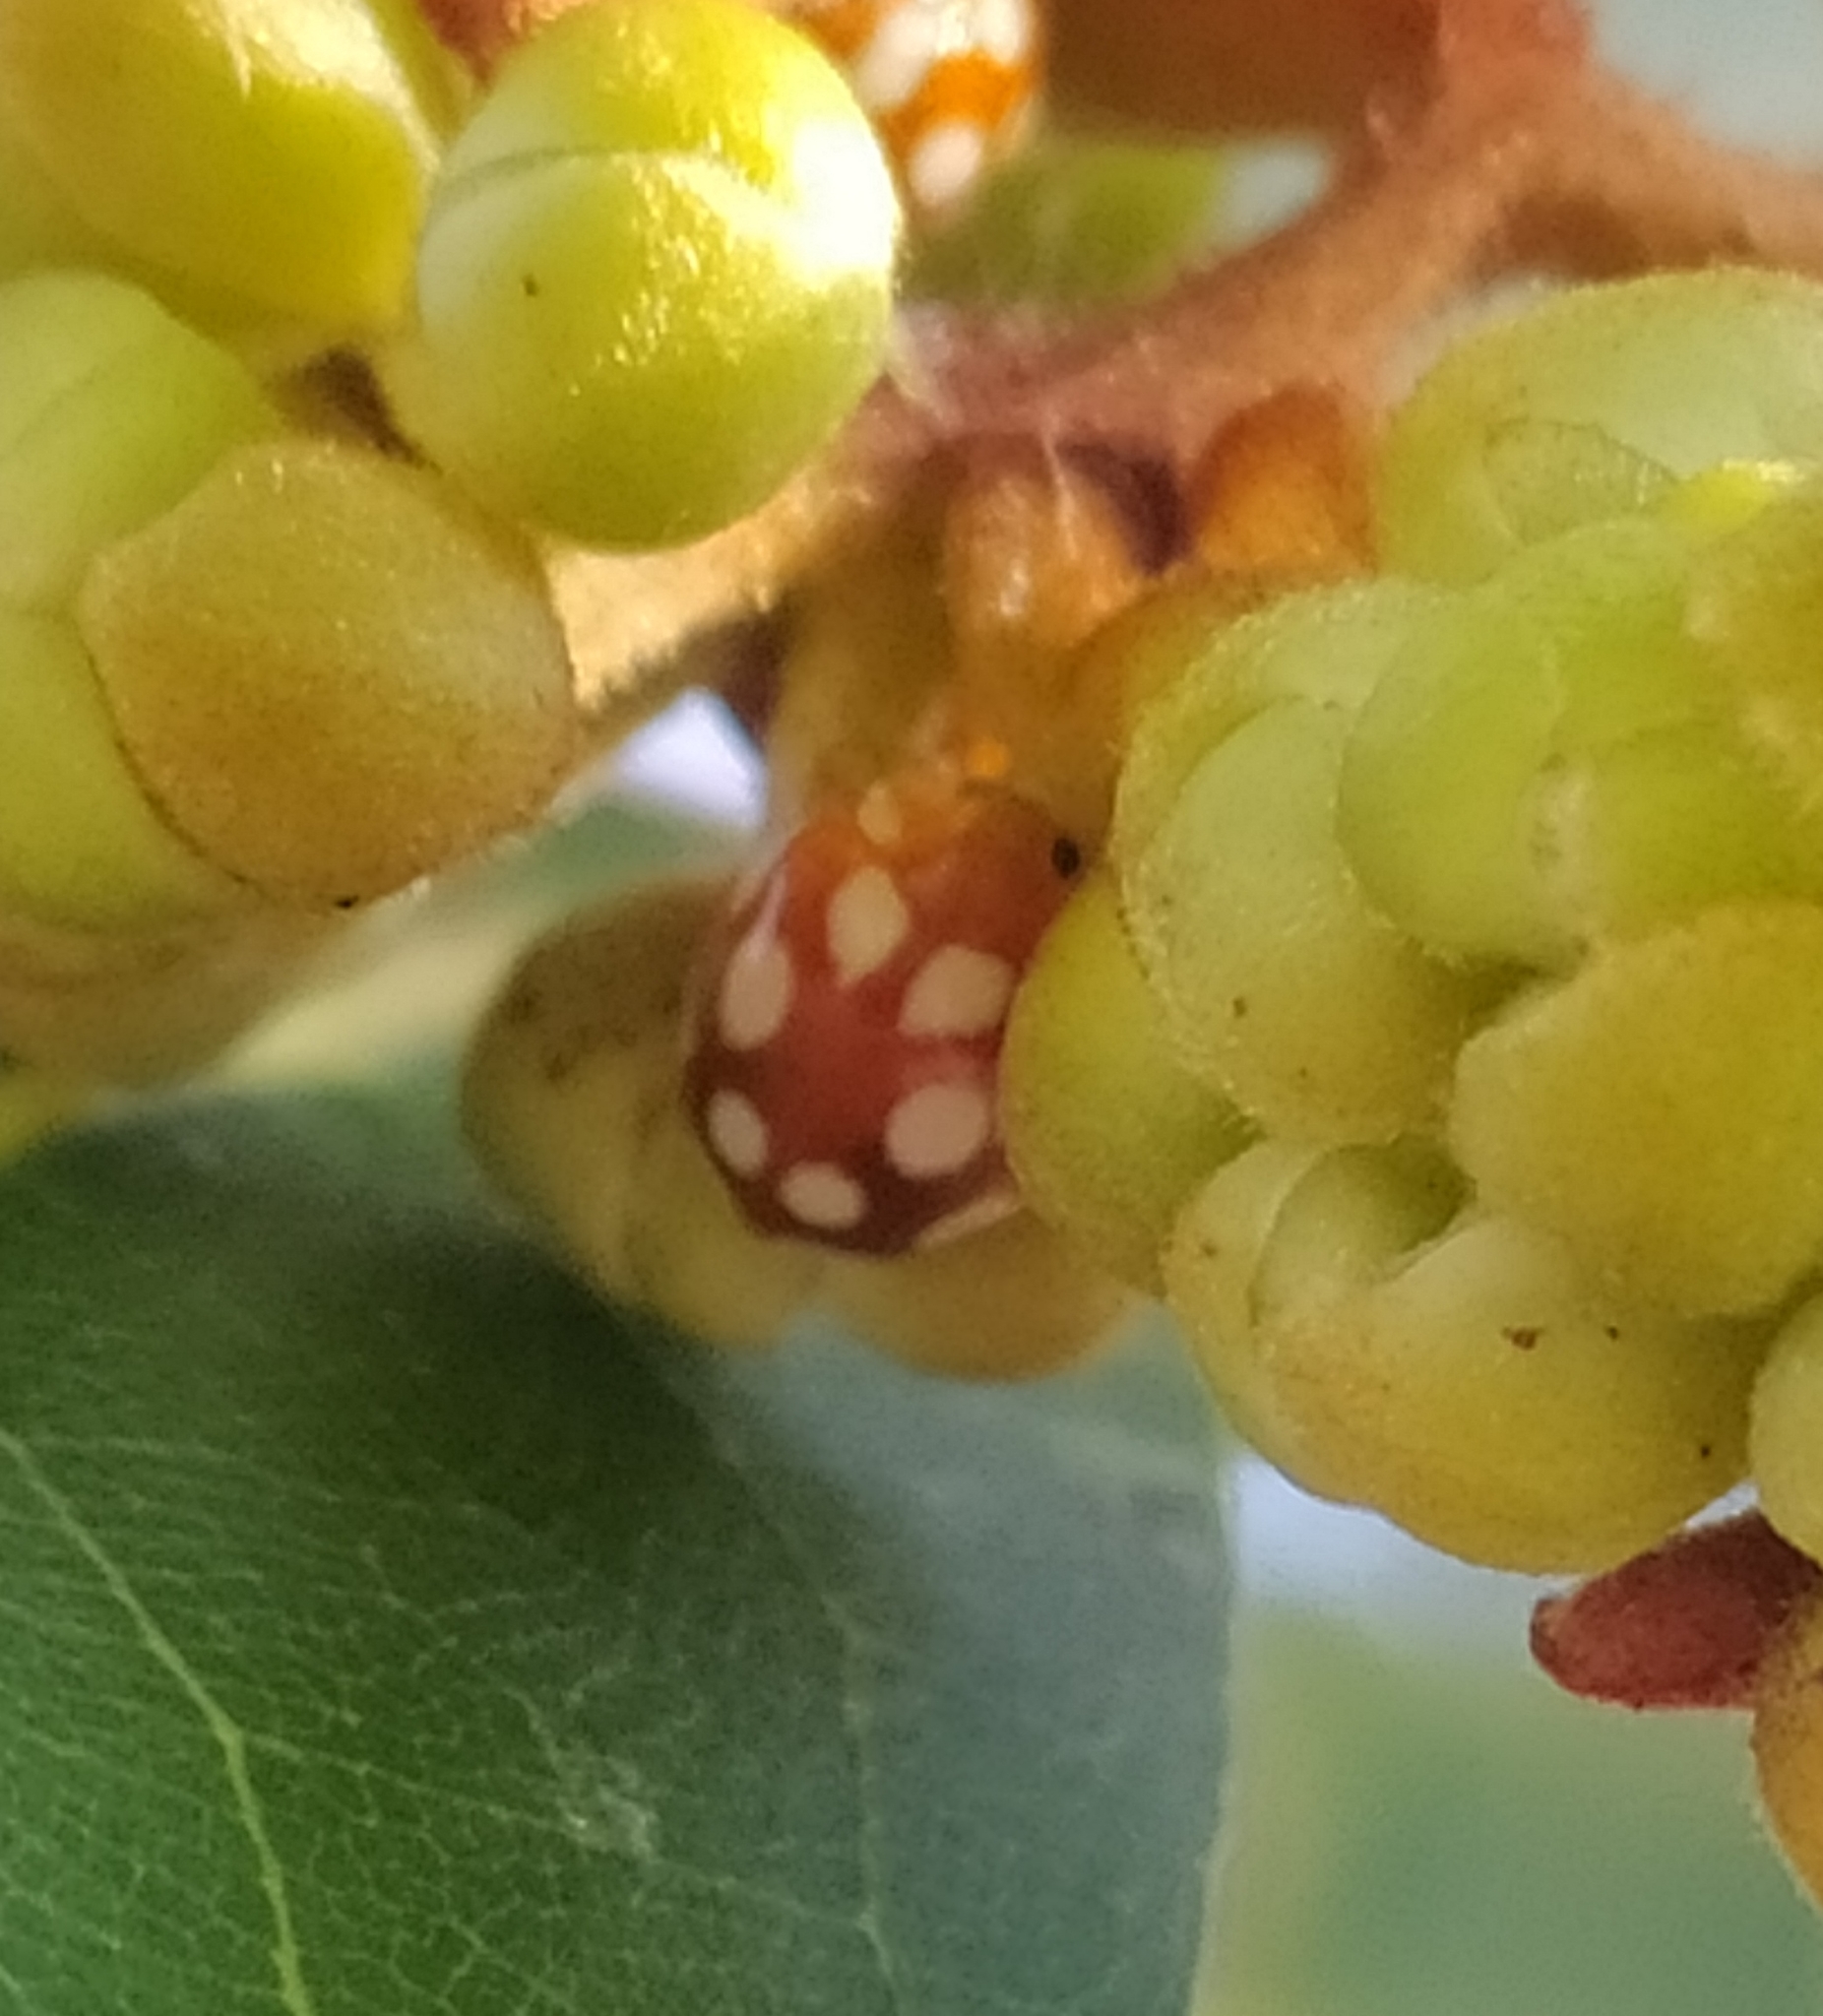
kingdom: Animalia
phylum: Arthropoda
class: Insecta
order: Coleoptera
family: Coccinellidae
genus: Vibidia
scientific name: Vibidia duodecimguttata
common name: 12-spot ladybird
